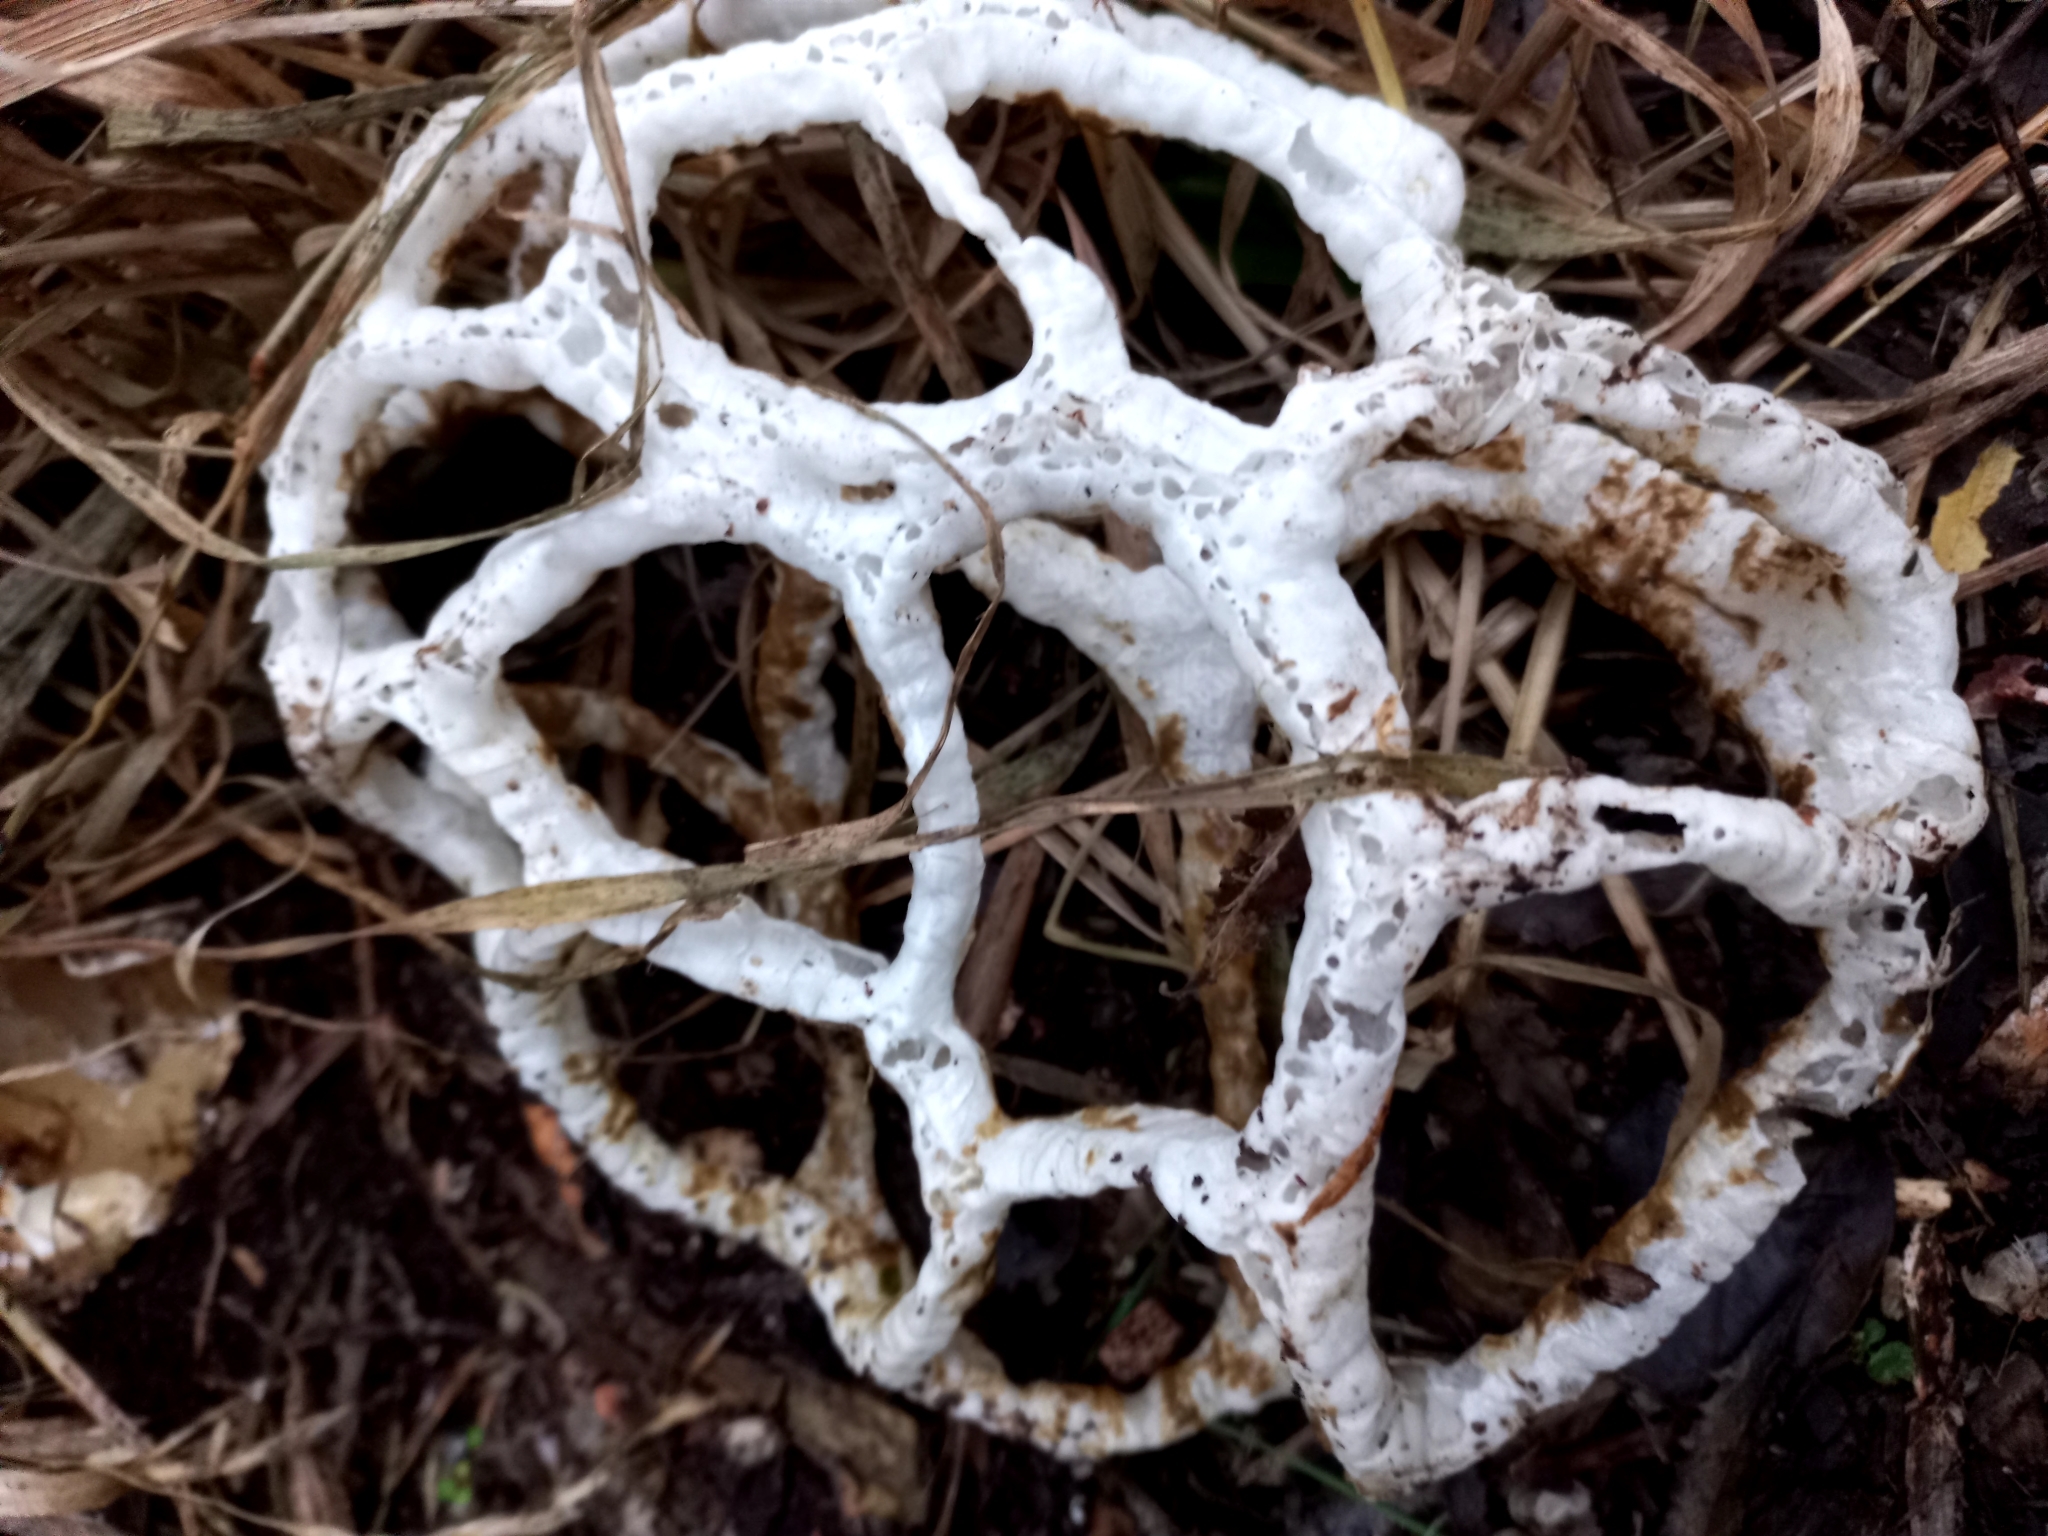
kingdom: Fungi
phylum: Basidiomycota
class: Agaricomycetes
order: Phallales
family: Phallaceae
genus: Ileodictyon
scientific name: Ileodictyon cibarium
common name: Basket fungus
